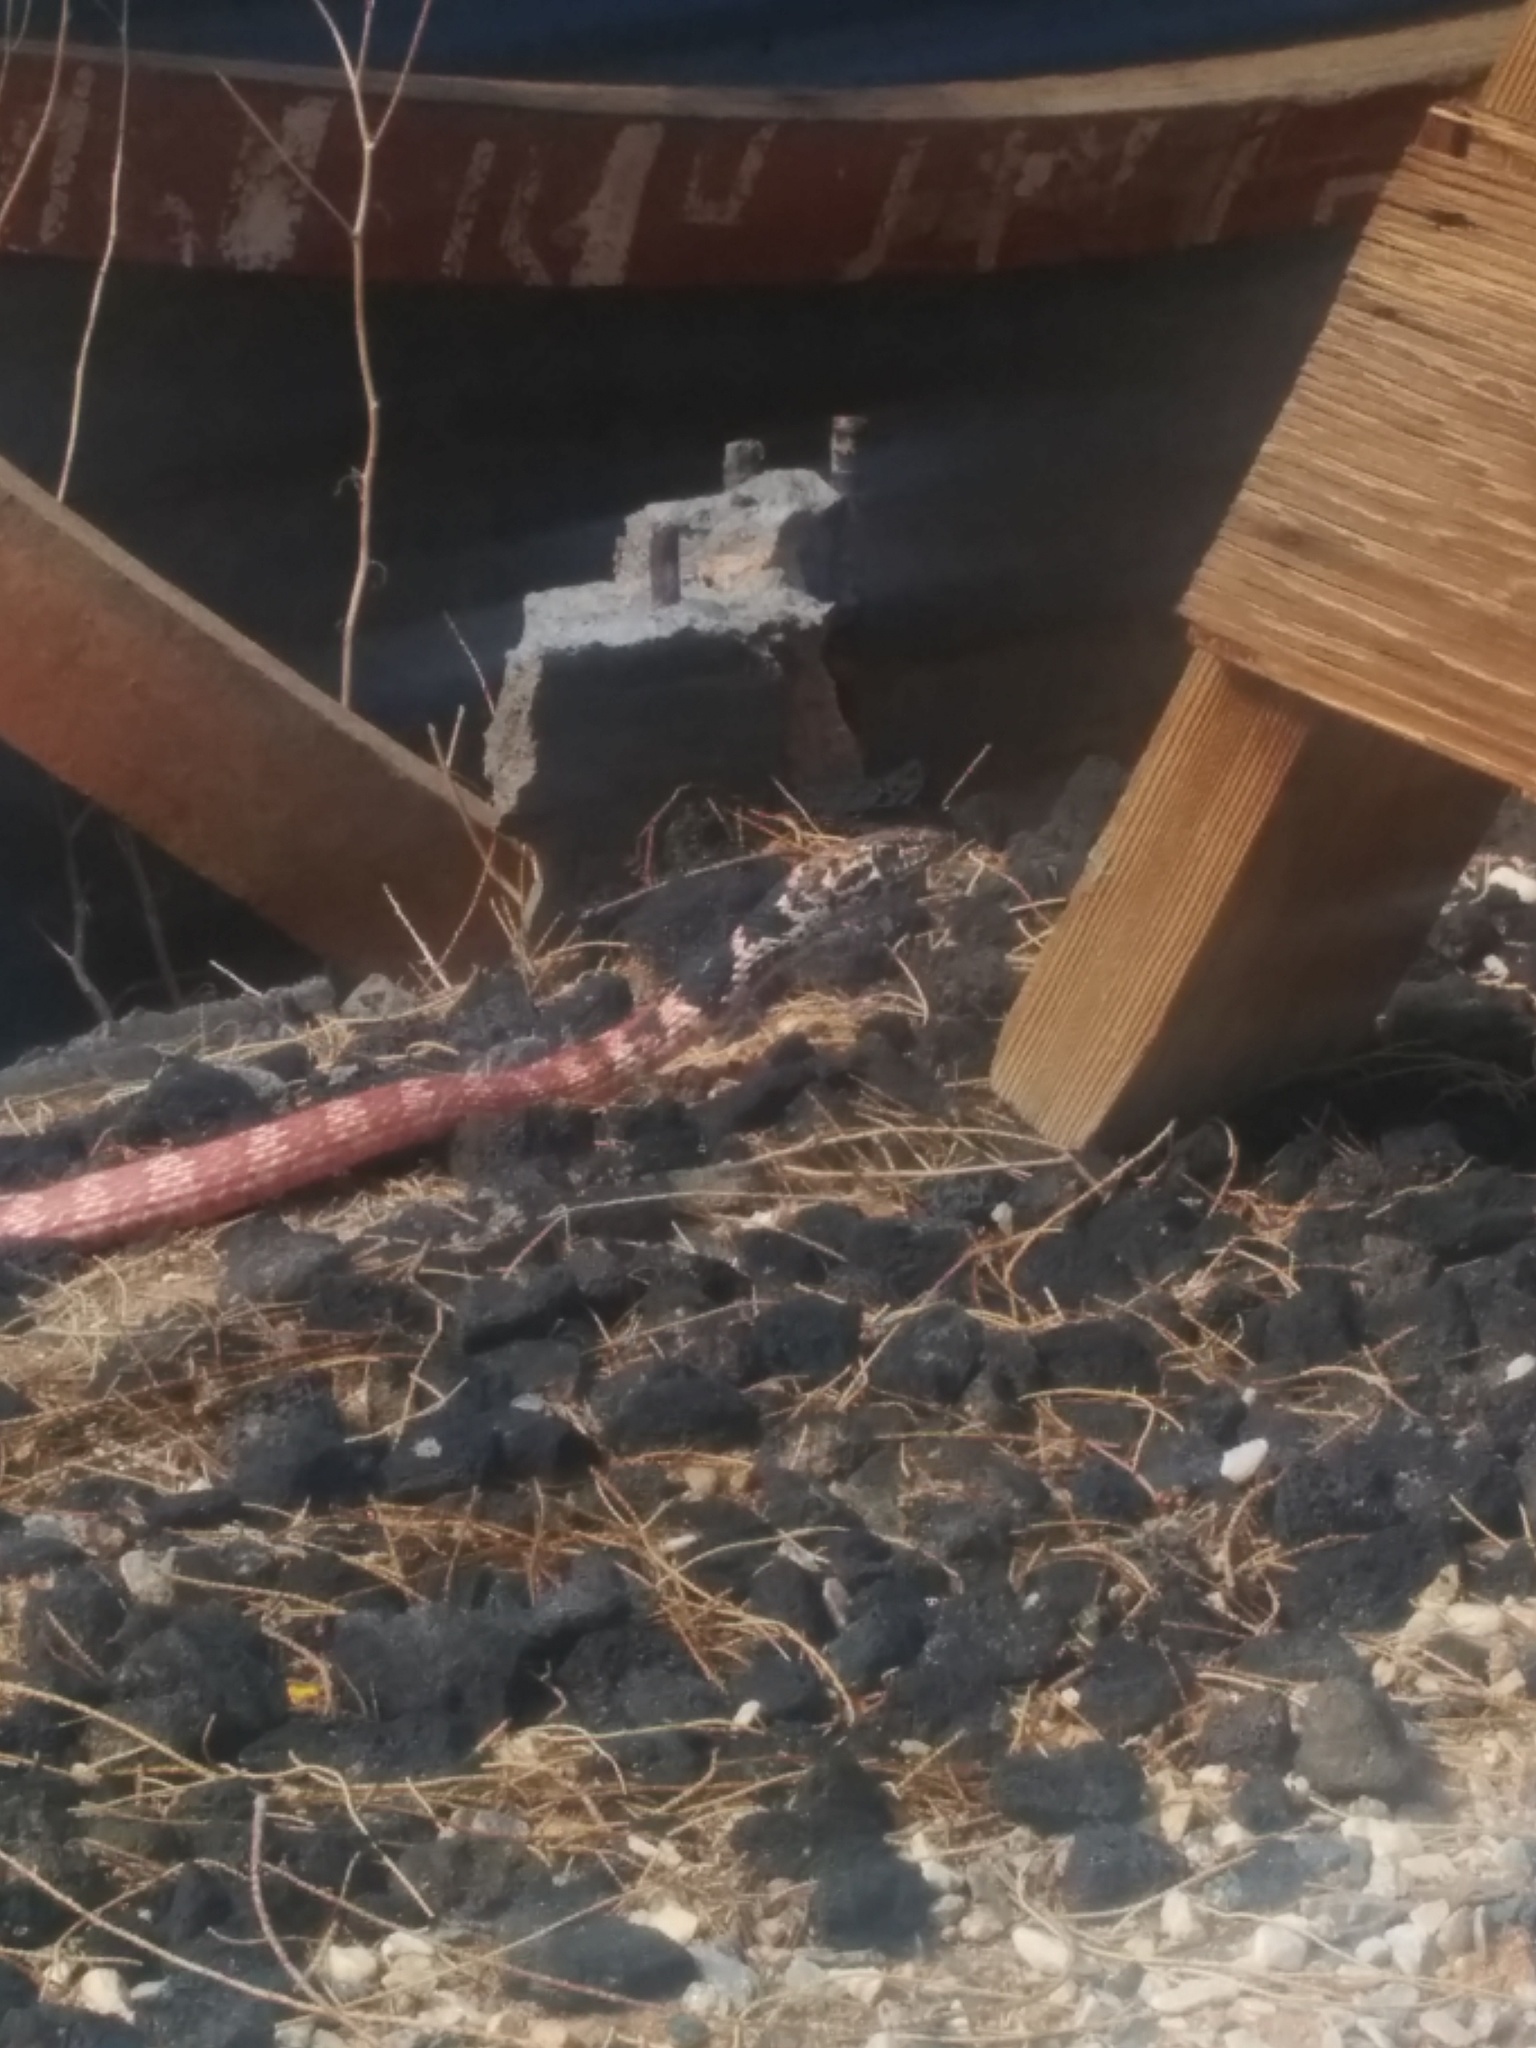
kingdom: Animalia
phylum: Chordata
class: Squamata
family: Colubridae
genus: Masticophis
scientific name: Masticophis flagellum
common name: Coachwhip
